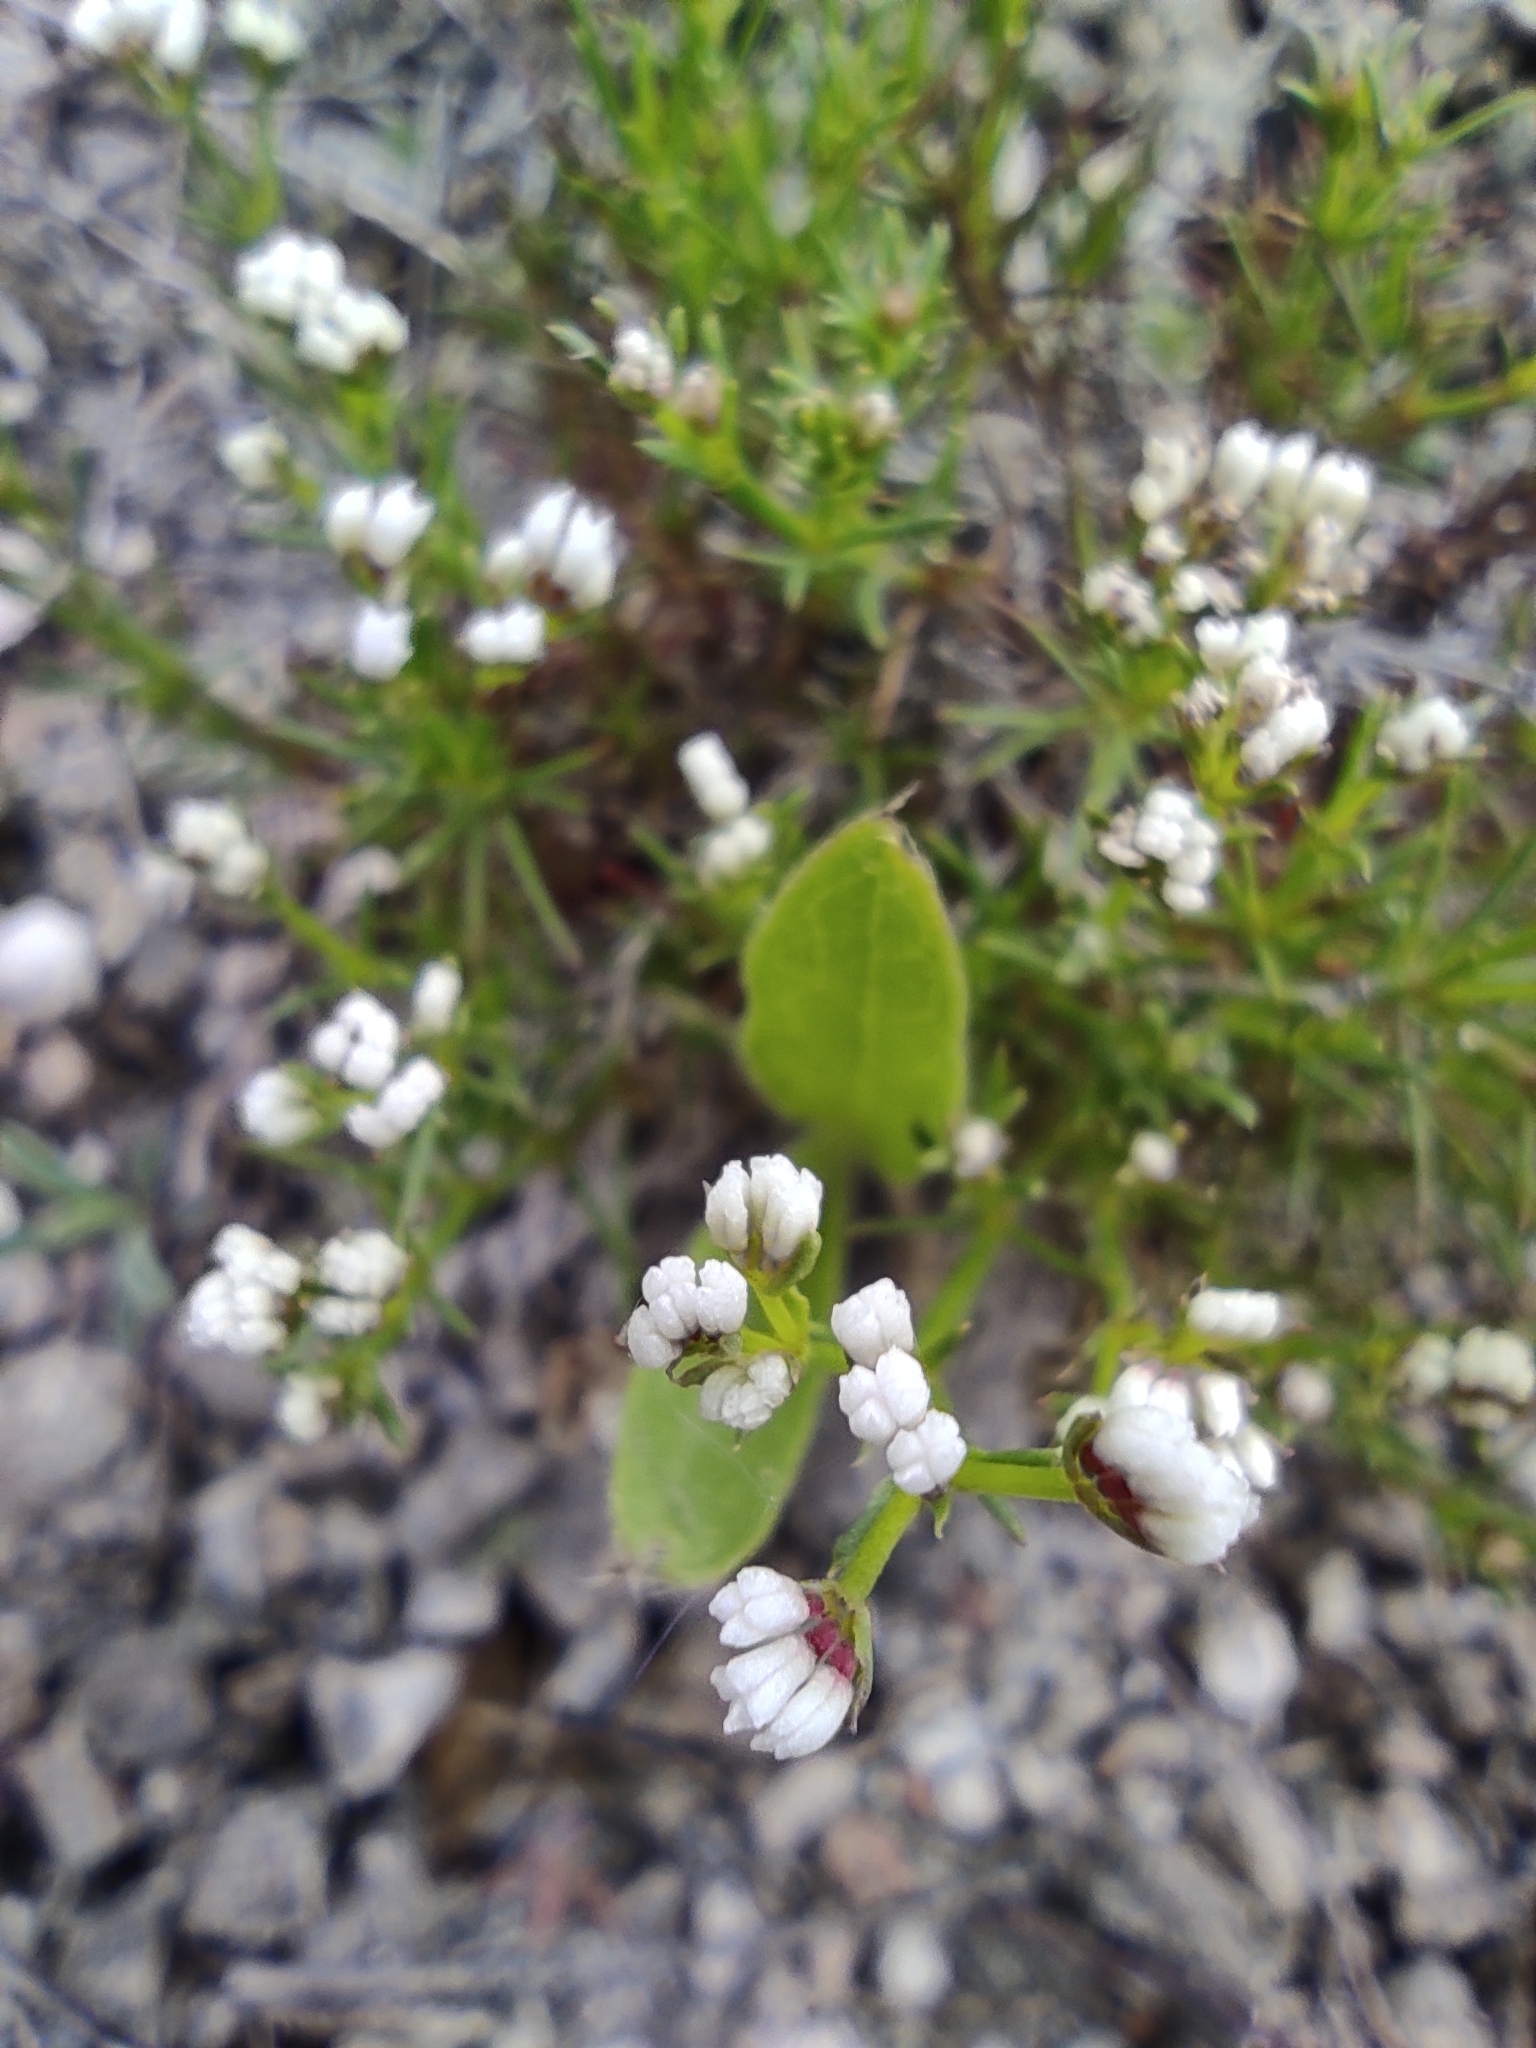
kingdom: Plantae
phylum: Tracheophyta
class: Magnoliopsida
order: Gentianales
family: Rubiaceae
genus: Cynanchica
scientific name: Cynanchica tephrocarpa
